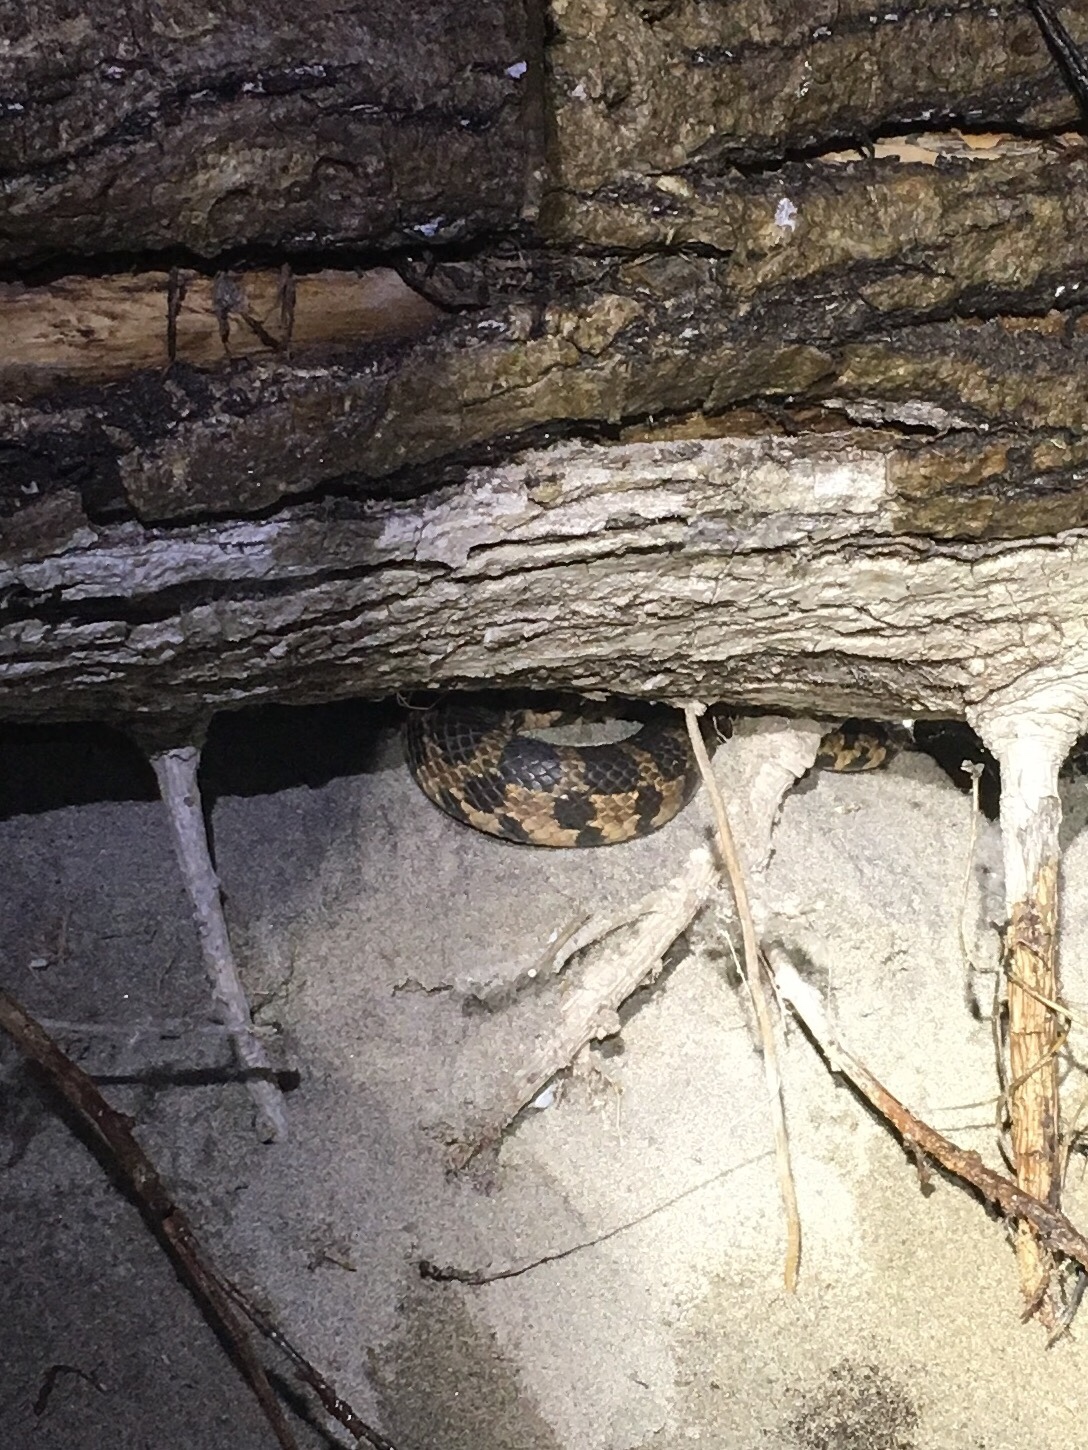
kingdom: Animalia
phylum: Chordata
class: Squamata
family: Colubridae
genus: Pantherophis
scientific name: Pantherophis vulpinus
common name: Eastern fox snake
